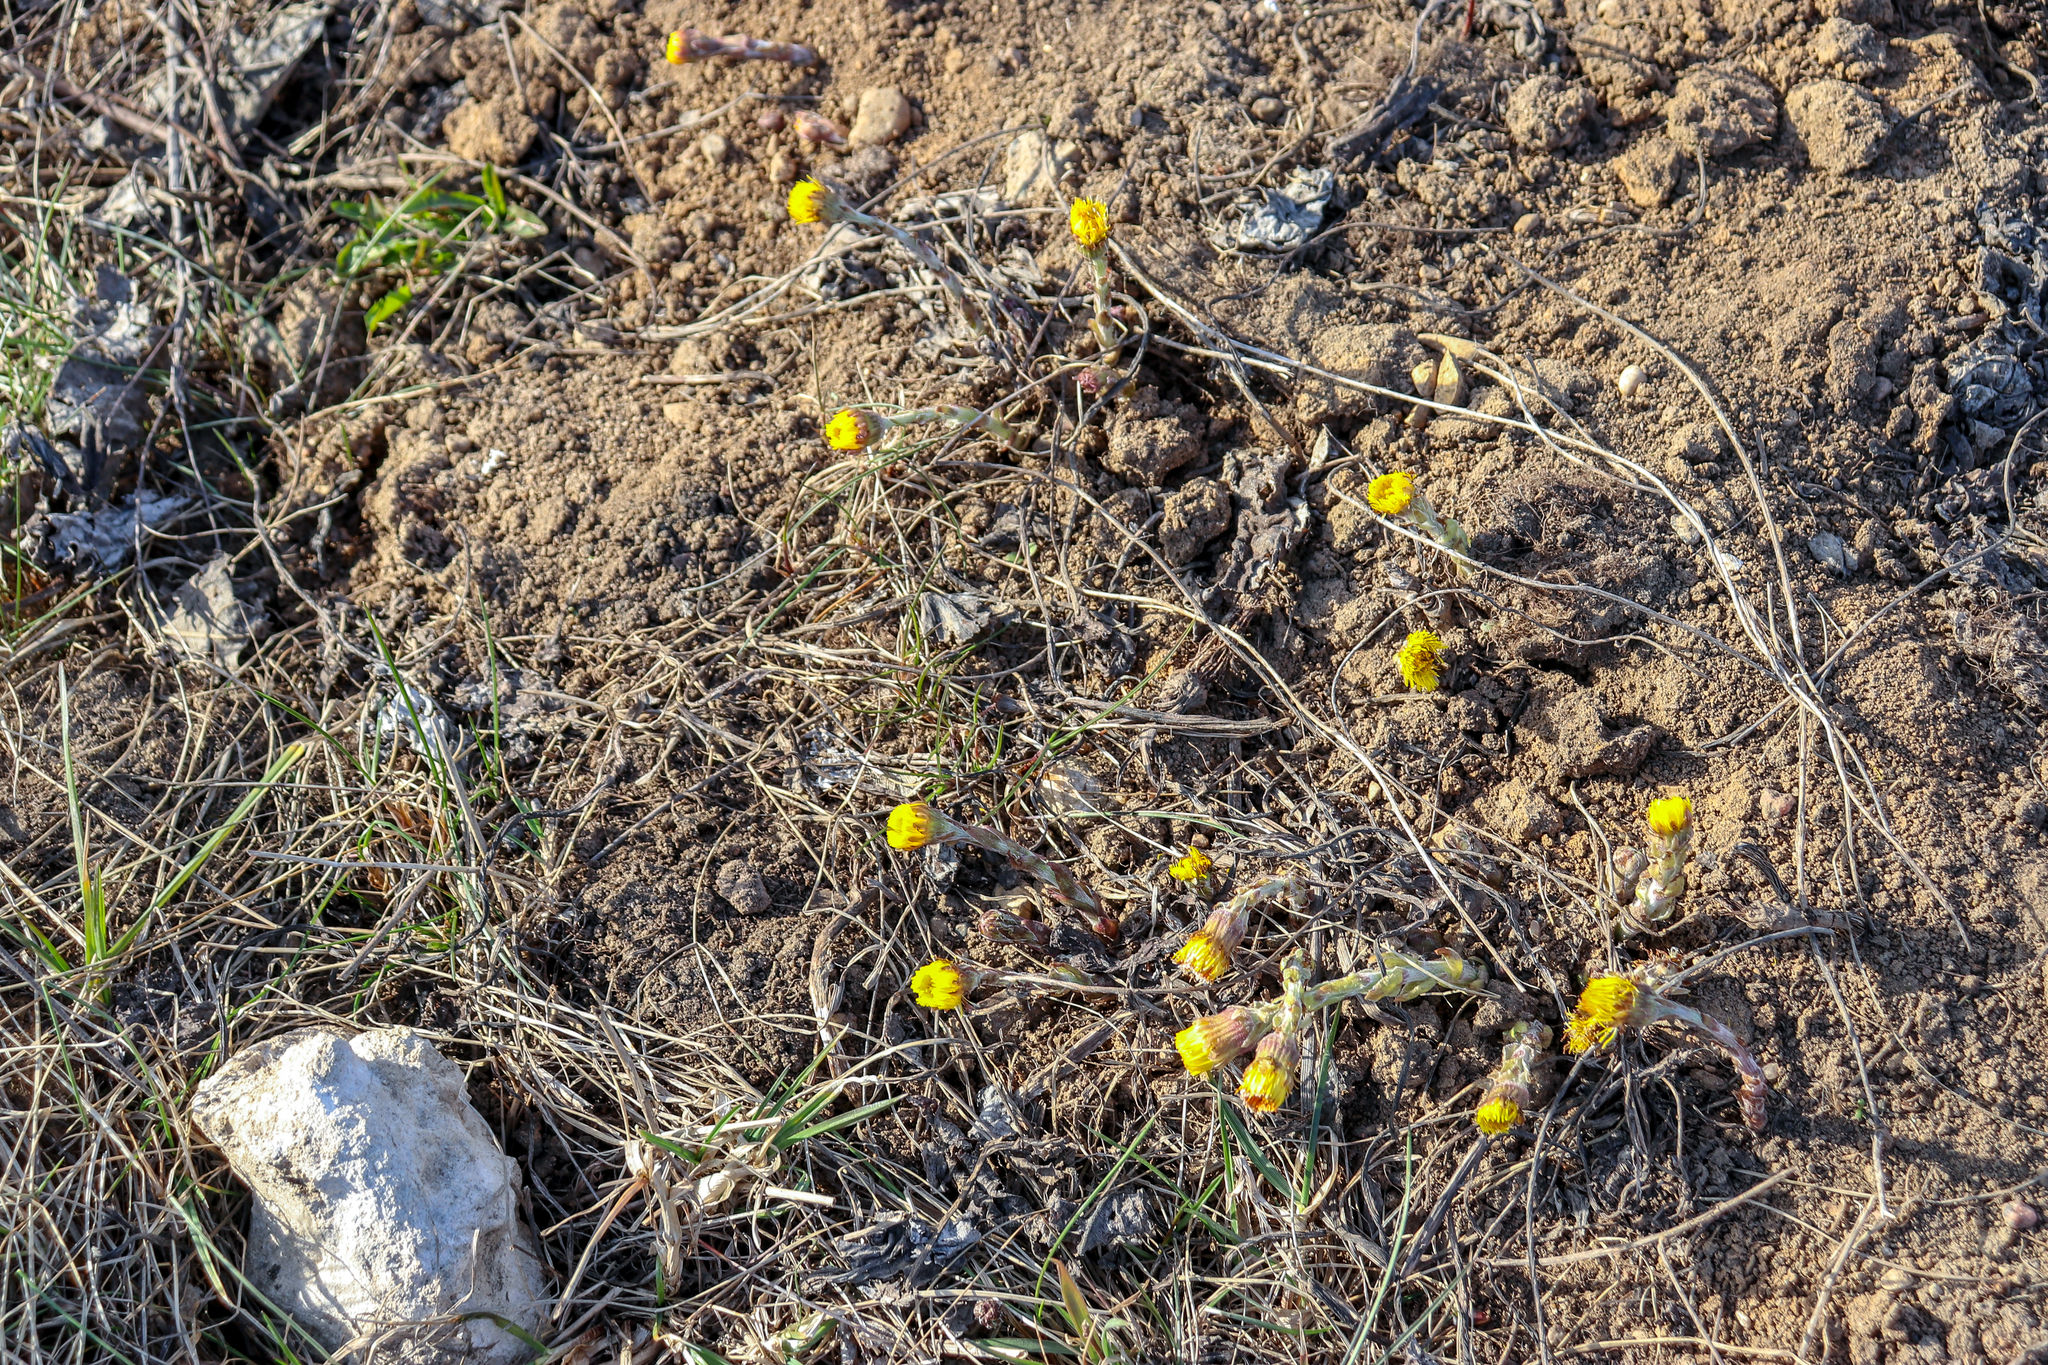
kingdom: Plantae
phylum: Tracheophyta
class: Magnoliopsida
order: Asterales
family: Asteraceae
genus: Tussilago
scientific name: Tussilago farfara
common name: Coltsfoot
